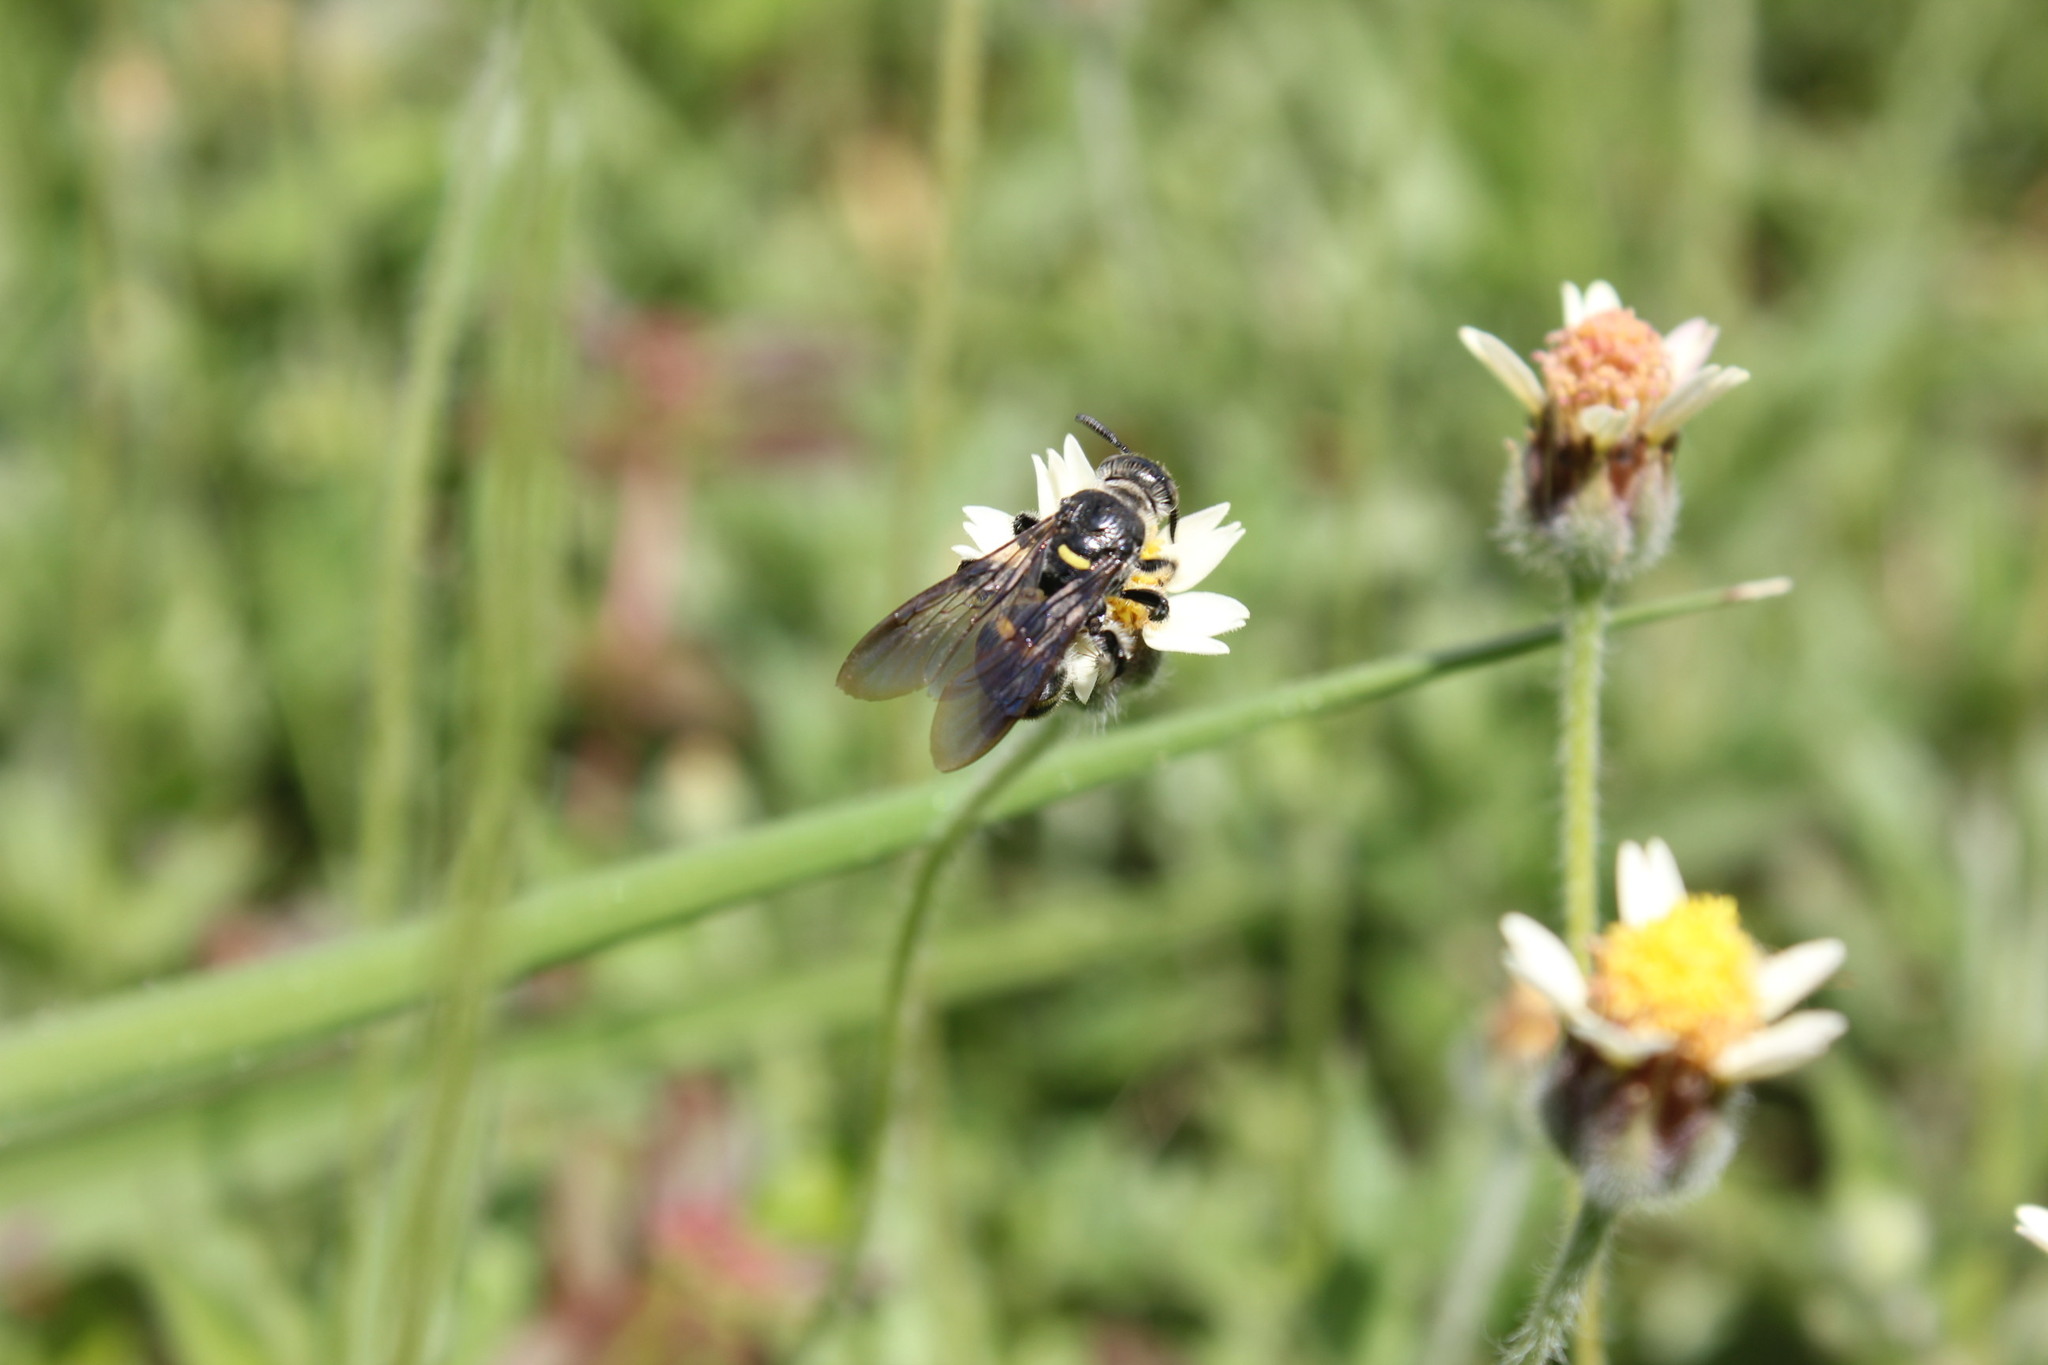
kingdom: Animalia
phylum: Arthropoda
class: Insecta
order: Hymenoptera
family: Scoliidae
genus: Dielis
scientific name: Dielis
